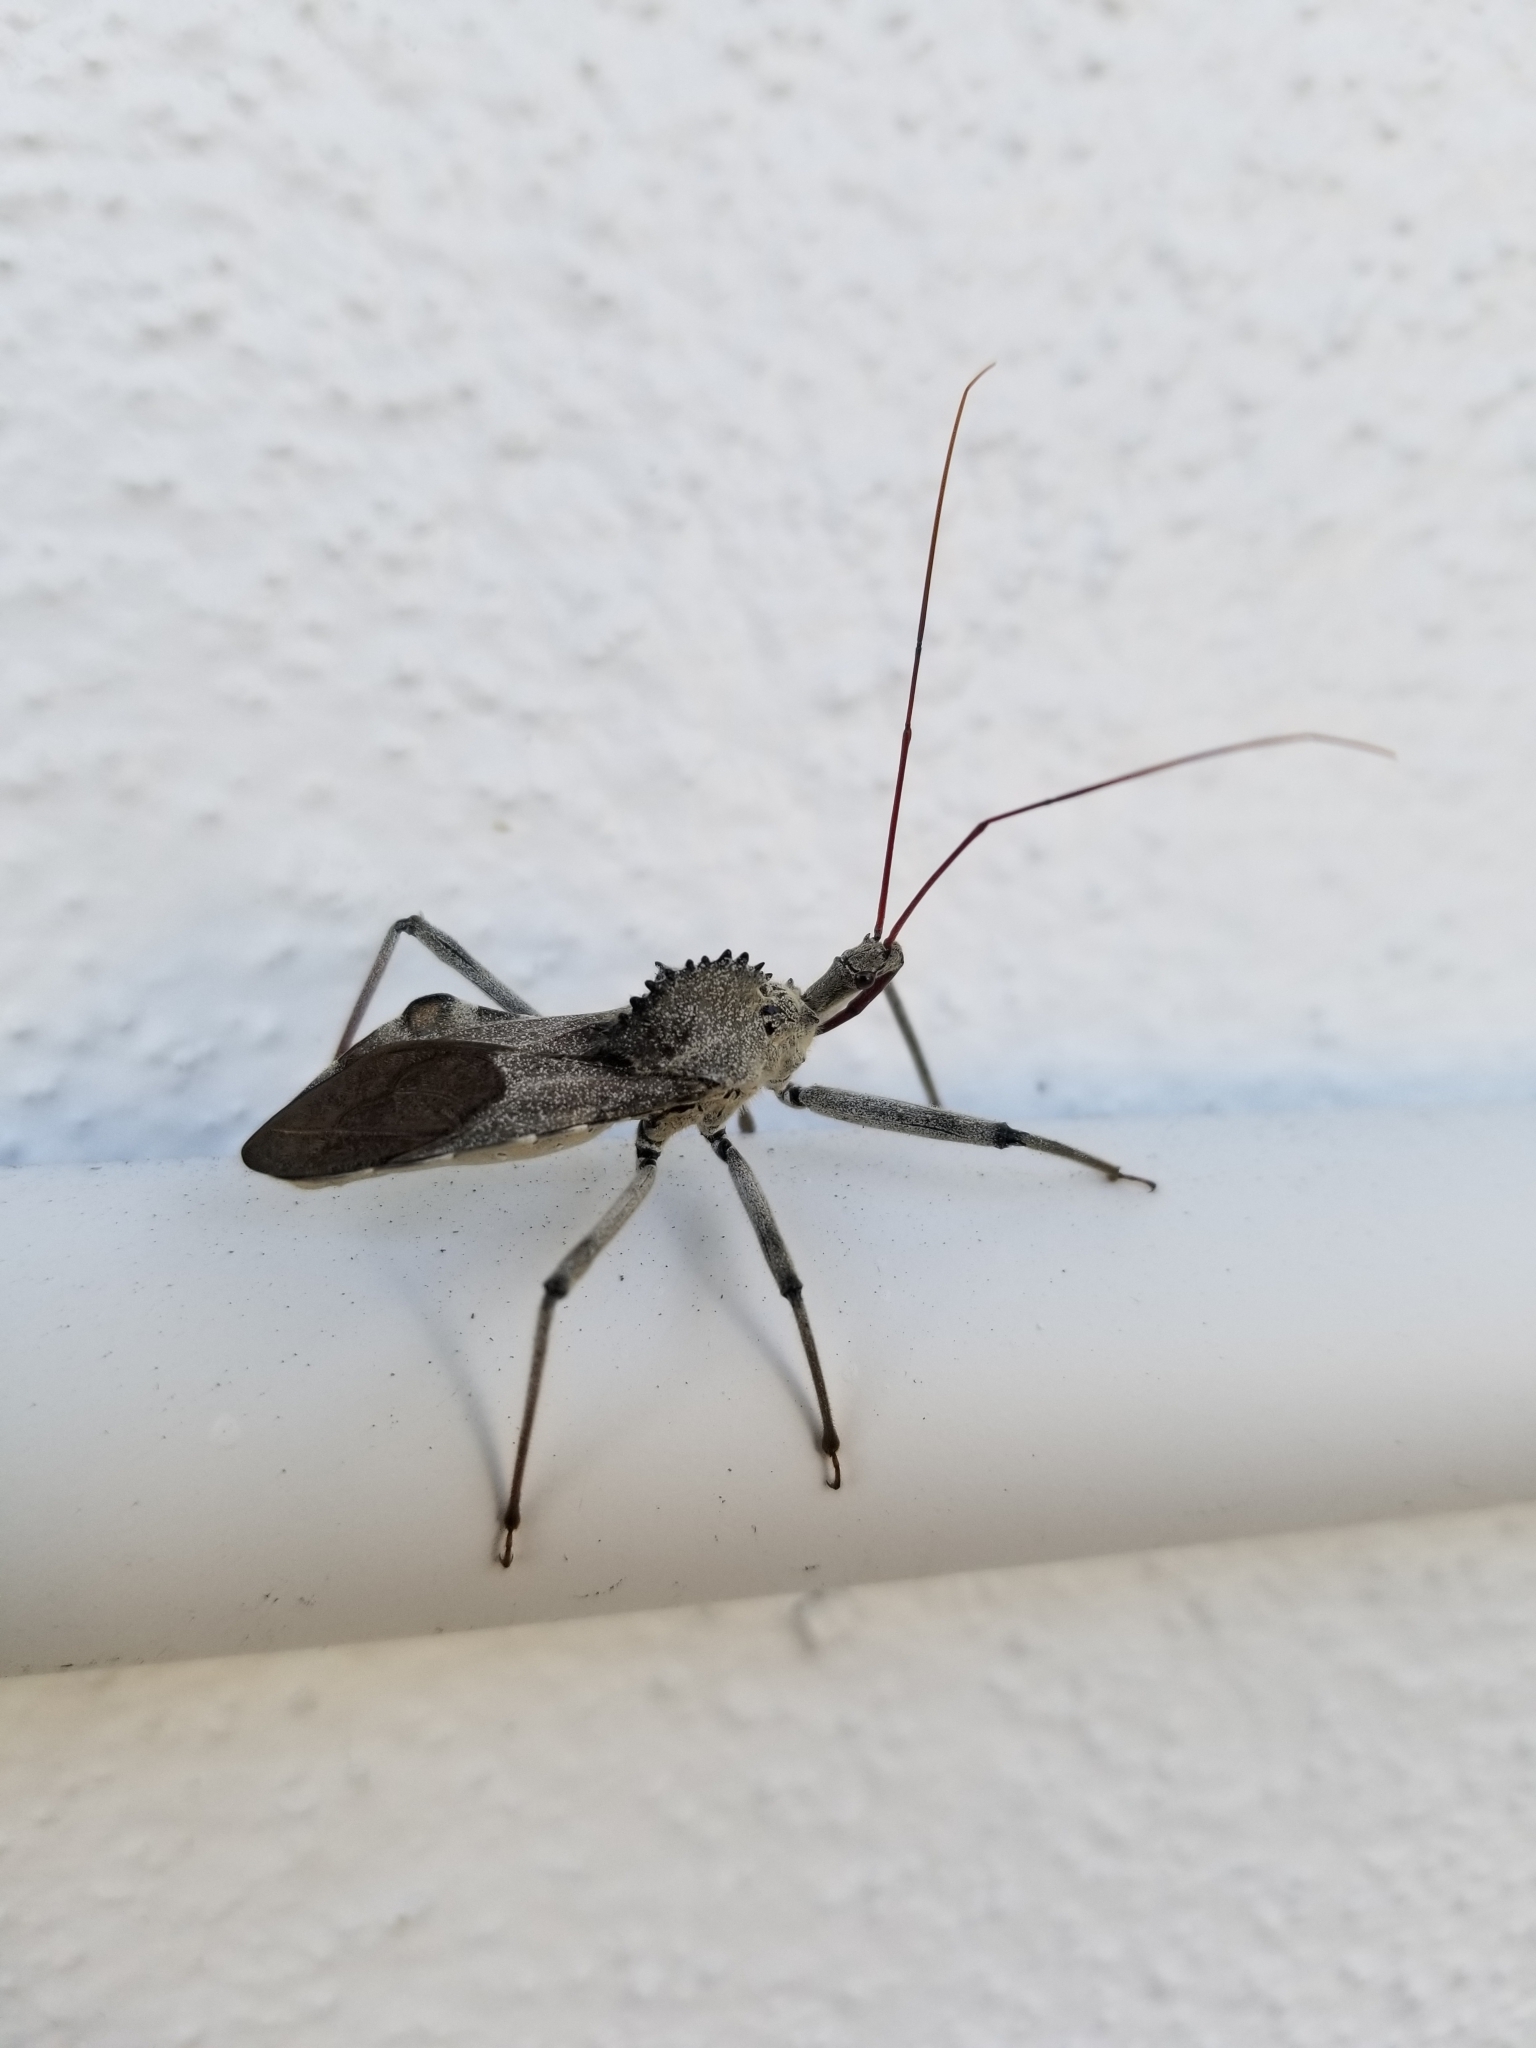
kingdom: Animalia
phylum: Arthropoda
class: Insecta
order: Hemiptera
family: Reduviidae
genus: Arilus
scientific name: Arilus cristatus
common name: North american wheel bug
